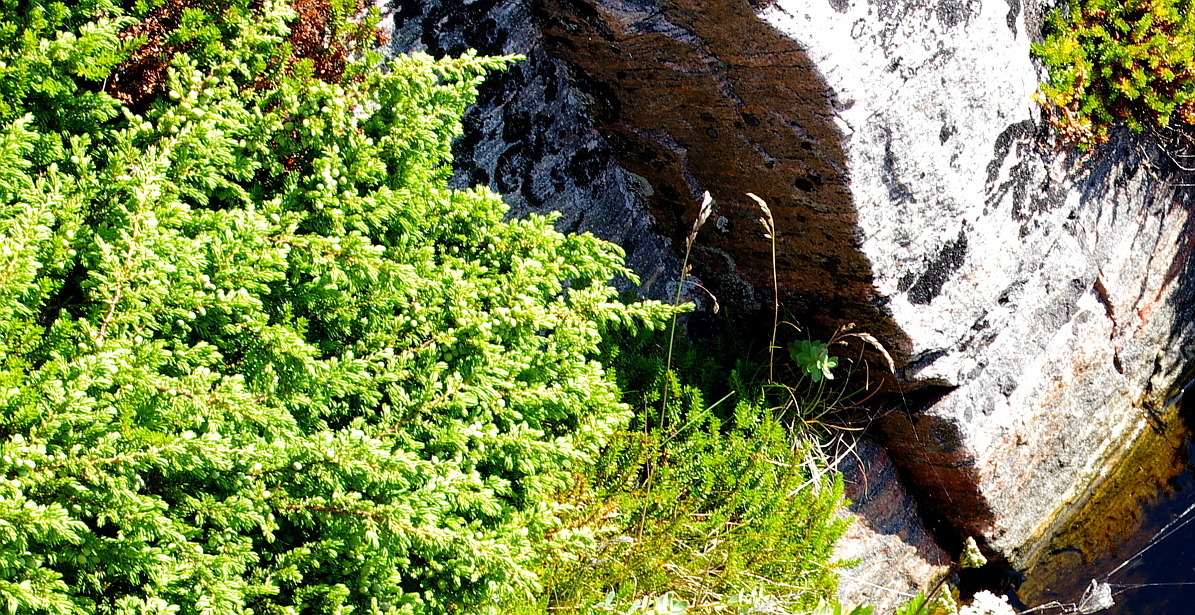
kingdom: Plantae
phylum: Tracheophyta
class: Pinopsida
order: Pinales
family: Cupressaceae
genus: Juniperus
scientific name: Juniperus communis
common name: Common juniper
